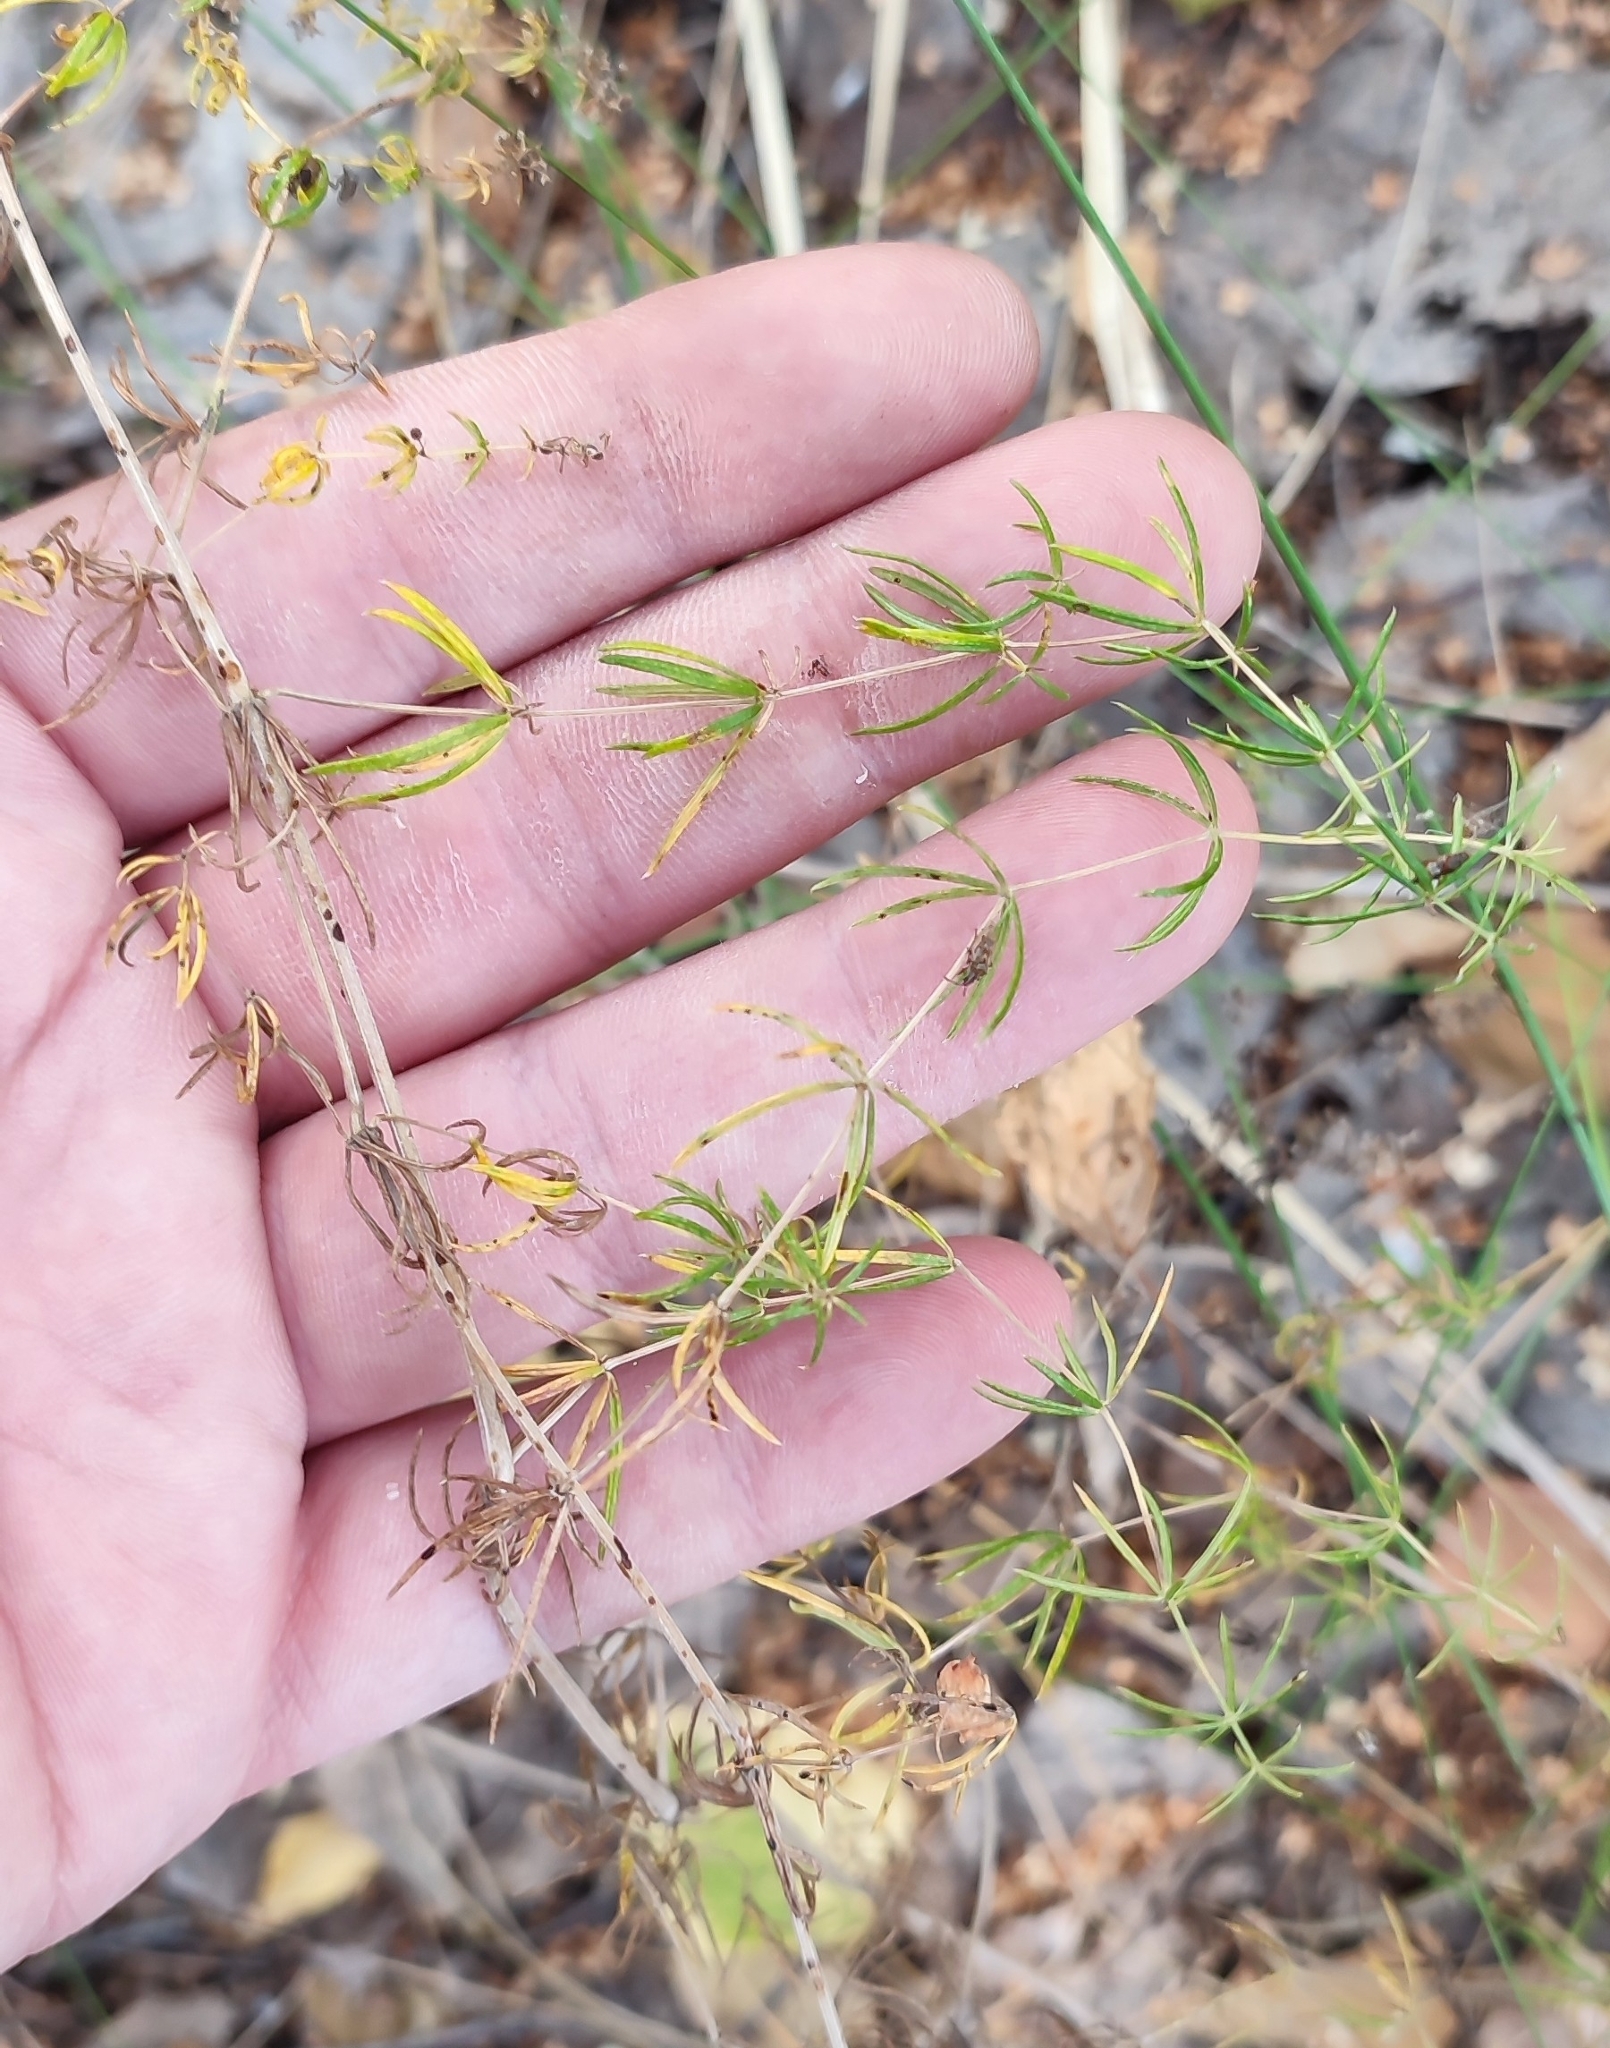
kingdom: Plantae
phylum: Tracheophyta
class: Magnoliopsida
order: Gentianales
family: Rubiaceae
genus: Galium
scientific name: Galium verum
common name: Lady's bedstraw
